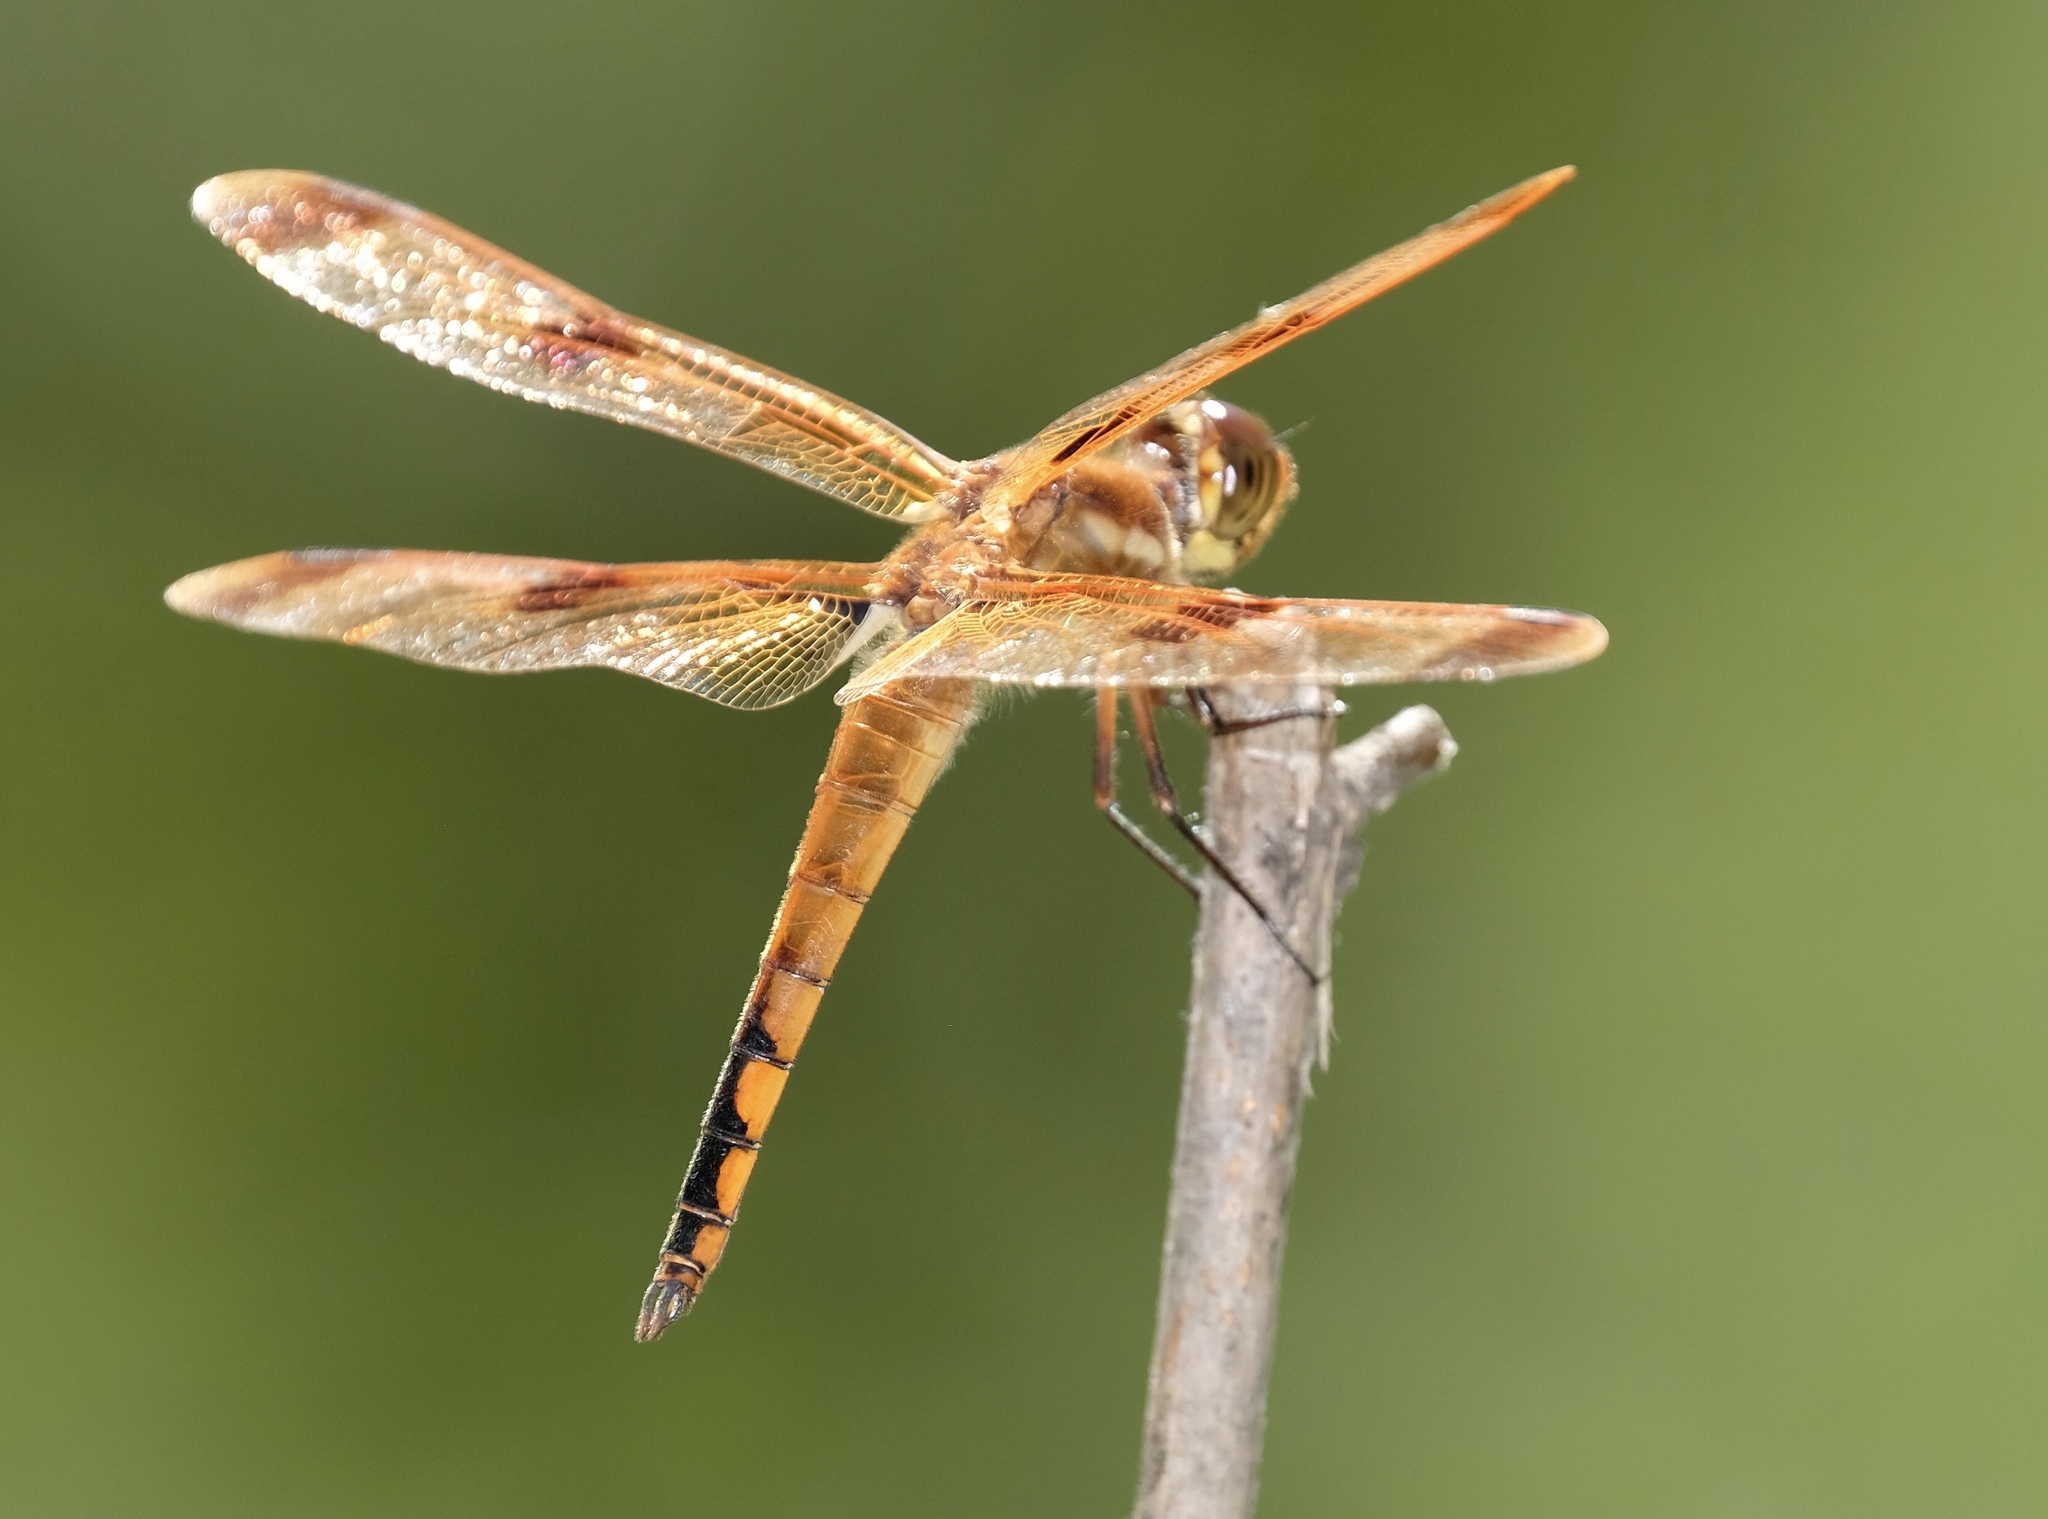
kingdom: Animalia
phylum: Arthropoda
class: Insecta
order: Odonata
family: Libellulidae
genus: Libellula
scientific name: Libellula semifasciata
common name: Painted skimmer
